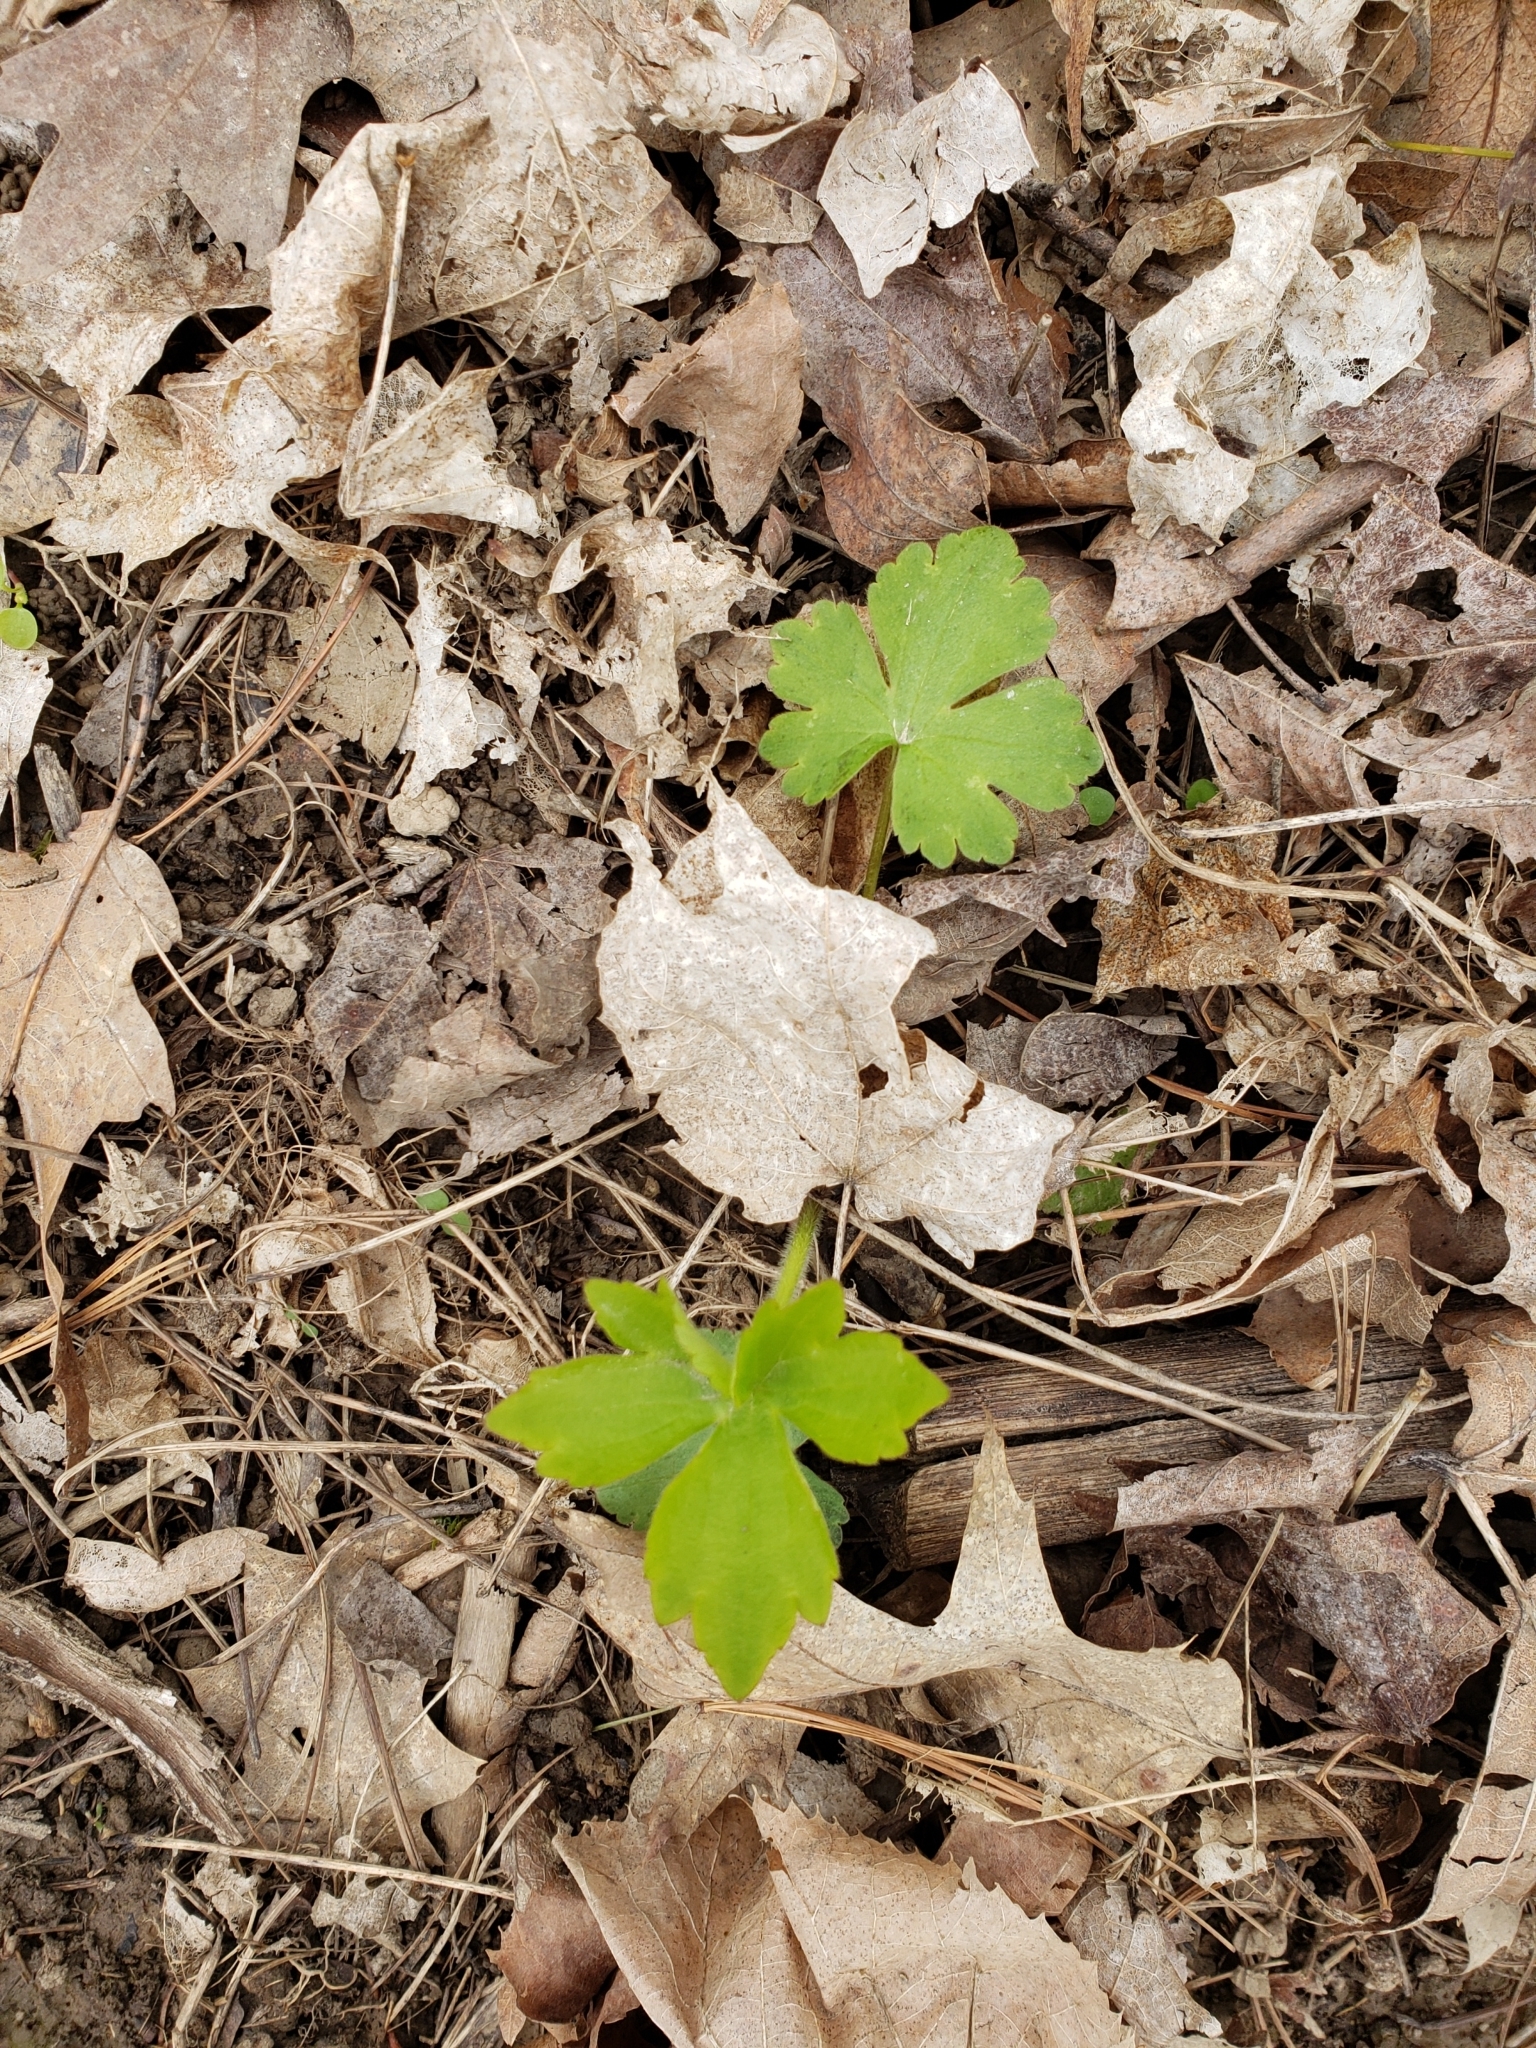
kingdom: Plantae
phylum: Tracheophyta
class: Magnoliopsida
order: Ranunculales
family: Ranunculaceae
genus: Ranunculus
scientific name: Ranunculus recurvatus
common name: Blisterwort
